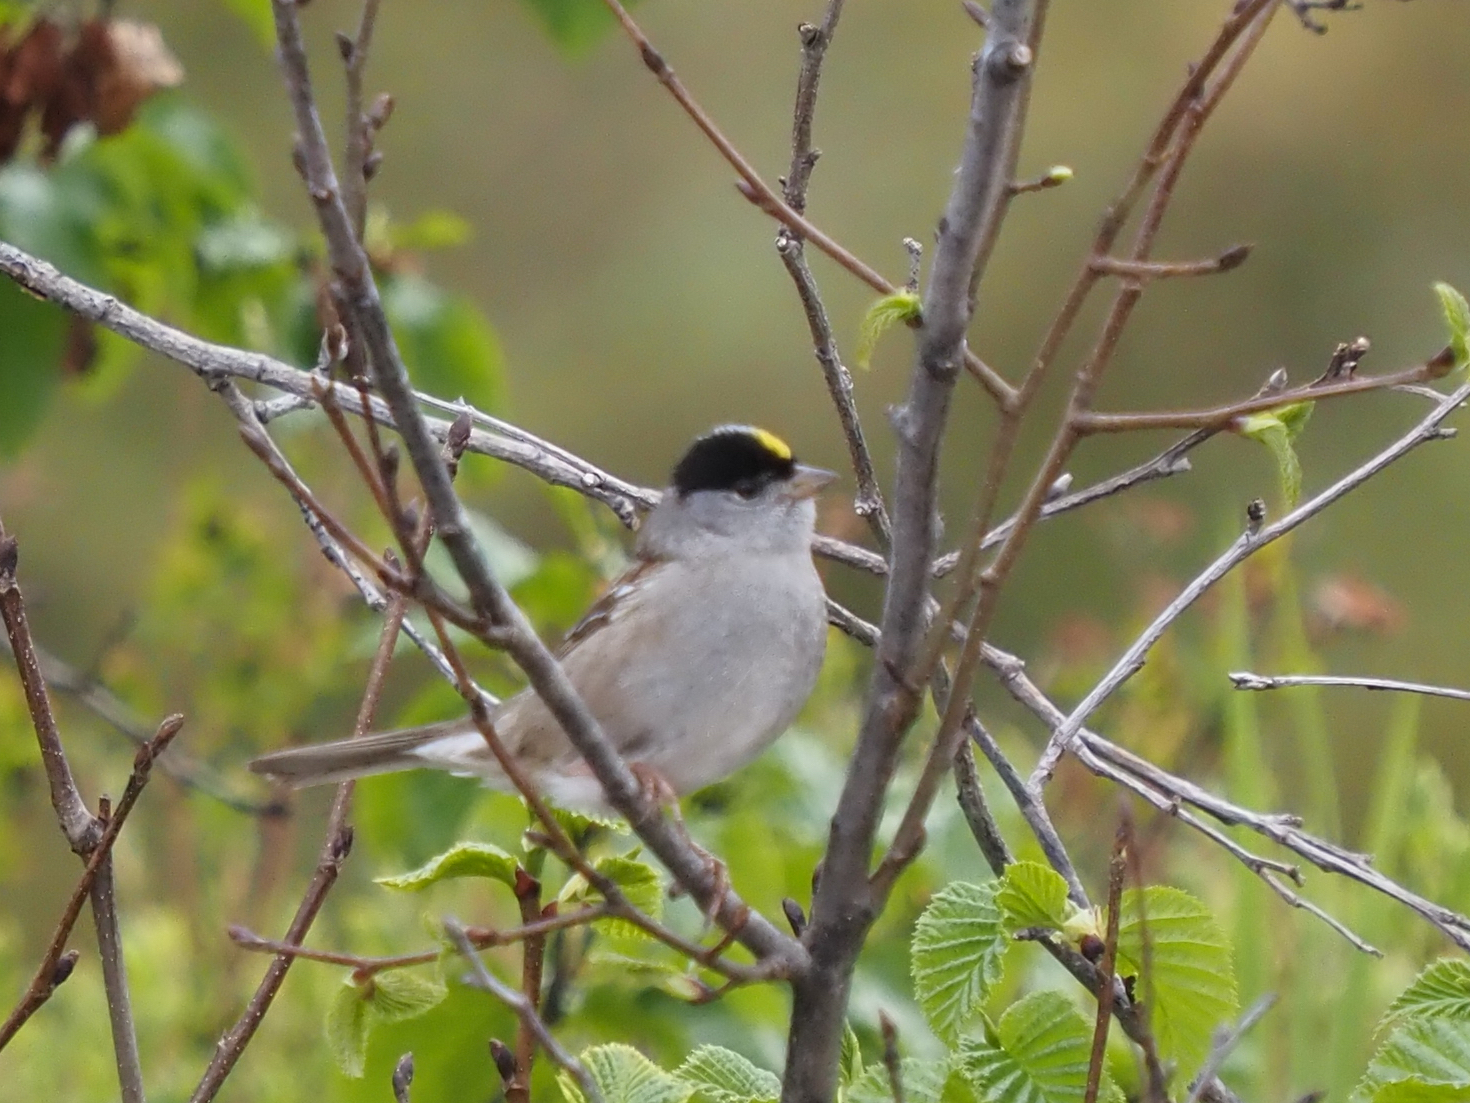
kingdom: Animalia
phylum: Chordata
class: Aves
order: Passeriformes
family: Passerellidae
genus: Zonotrichia
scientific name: Zonotrichia atricapilla
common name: Golden-crowned sparrow
